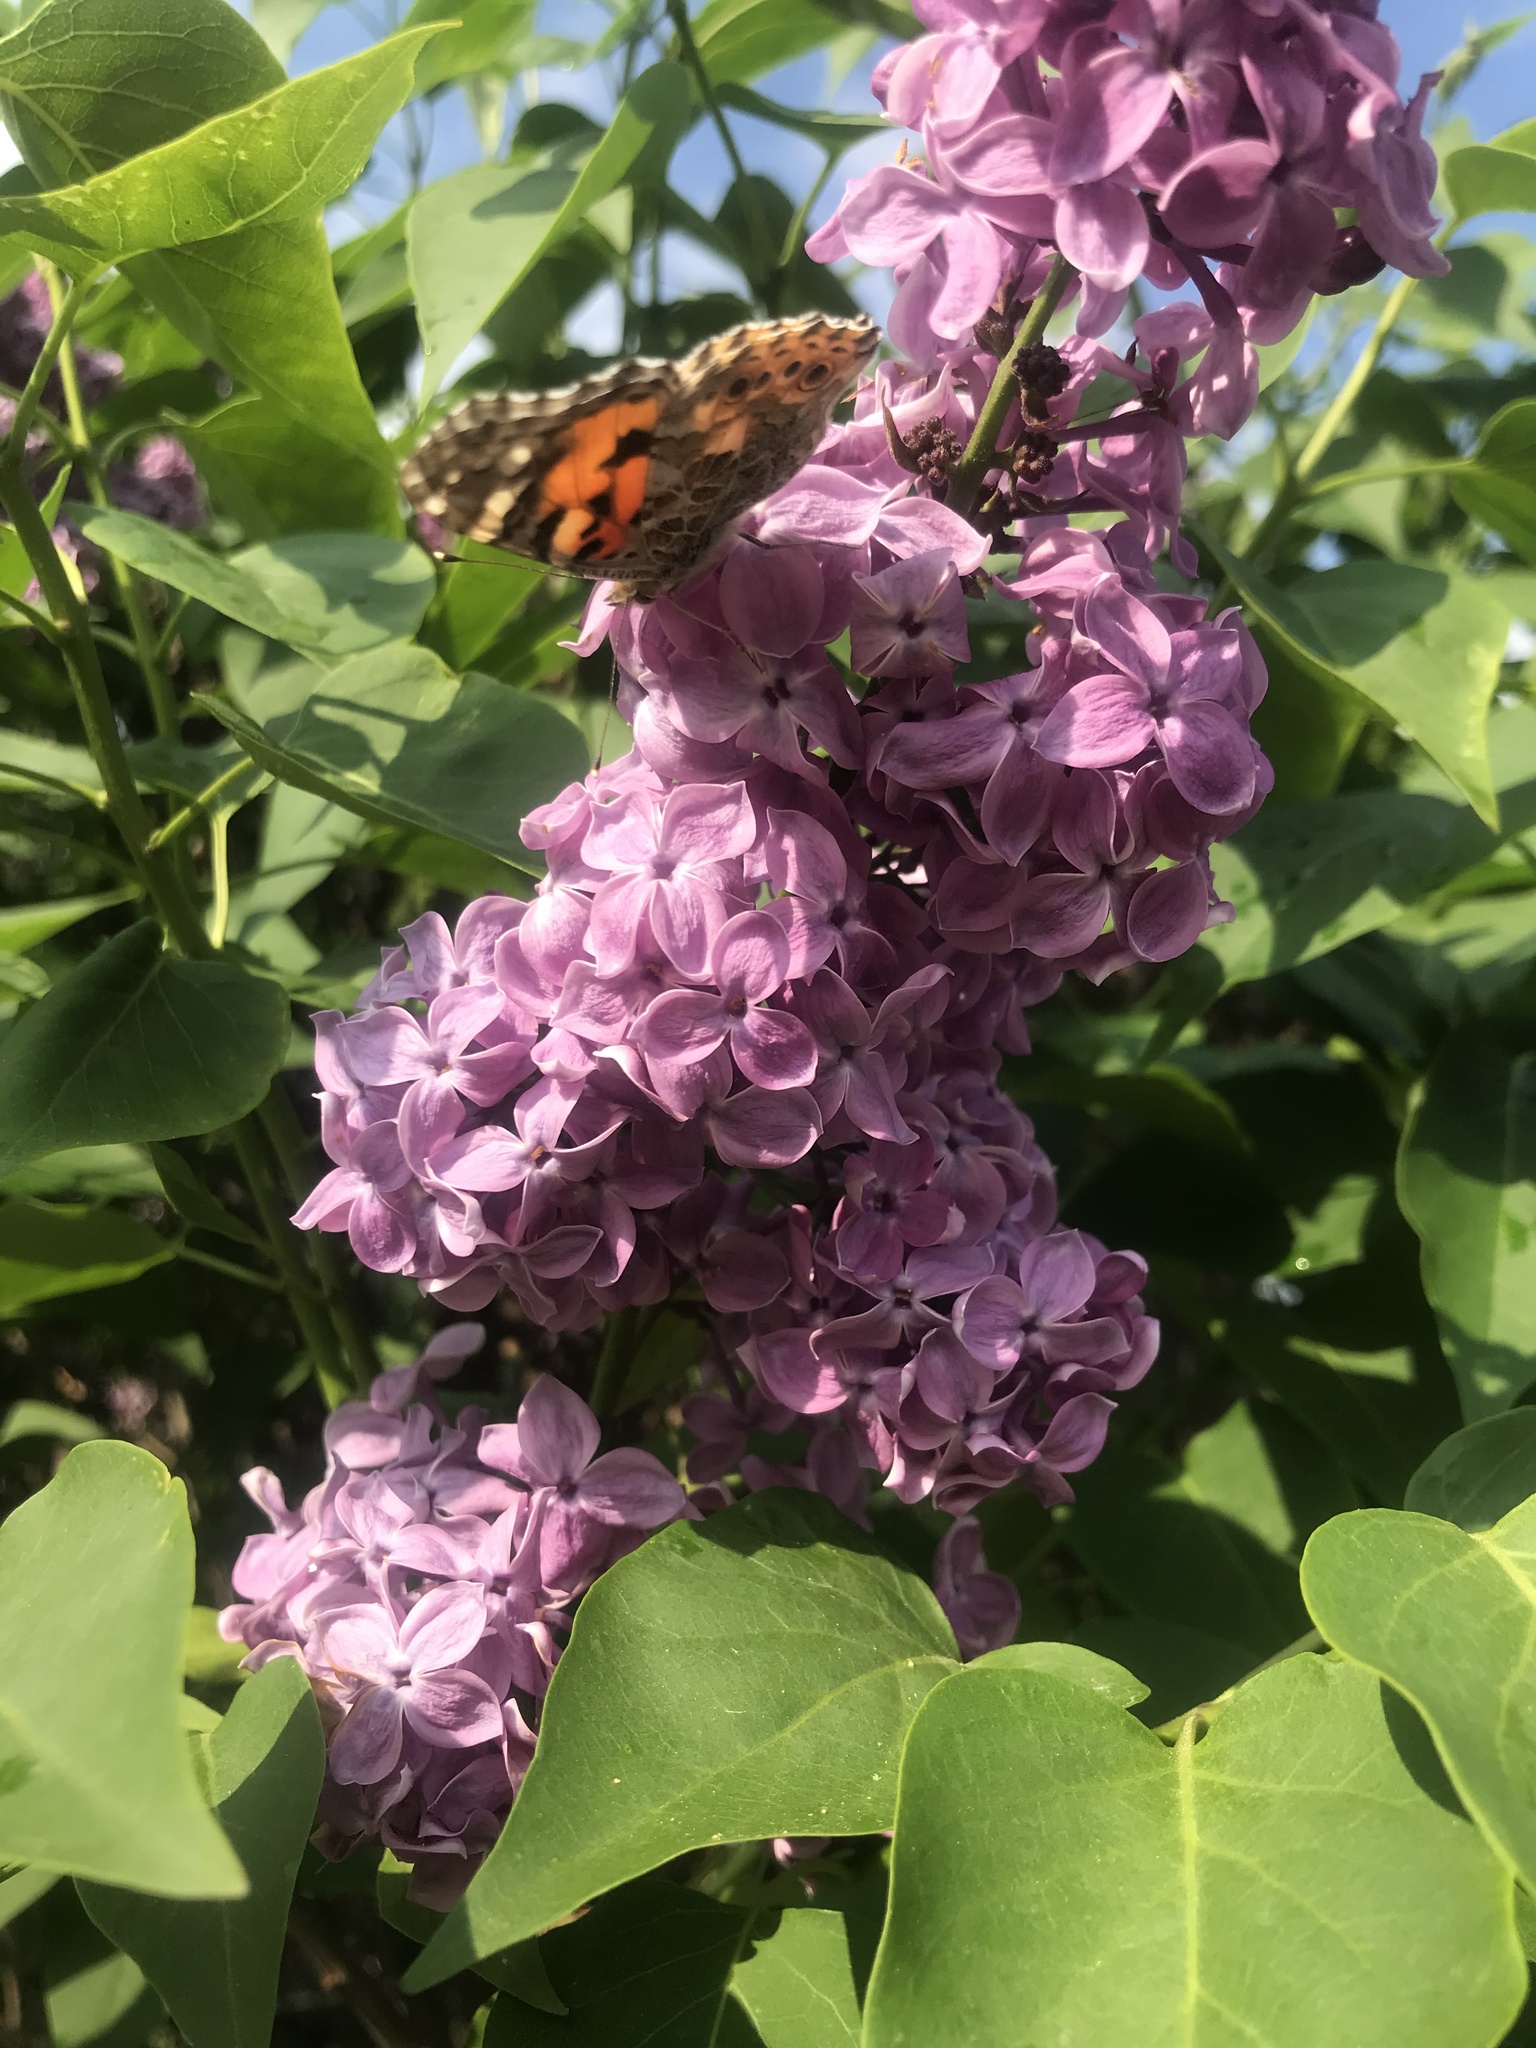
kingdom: Animalia
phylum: Arthropoda
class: Insecta
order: Lepidoptera
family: Nymphalidae
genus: Vanessa
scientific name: Vanessa cardui
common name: Painted lady
